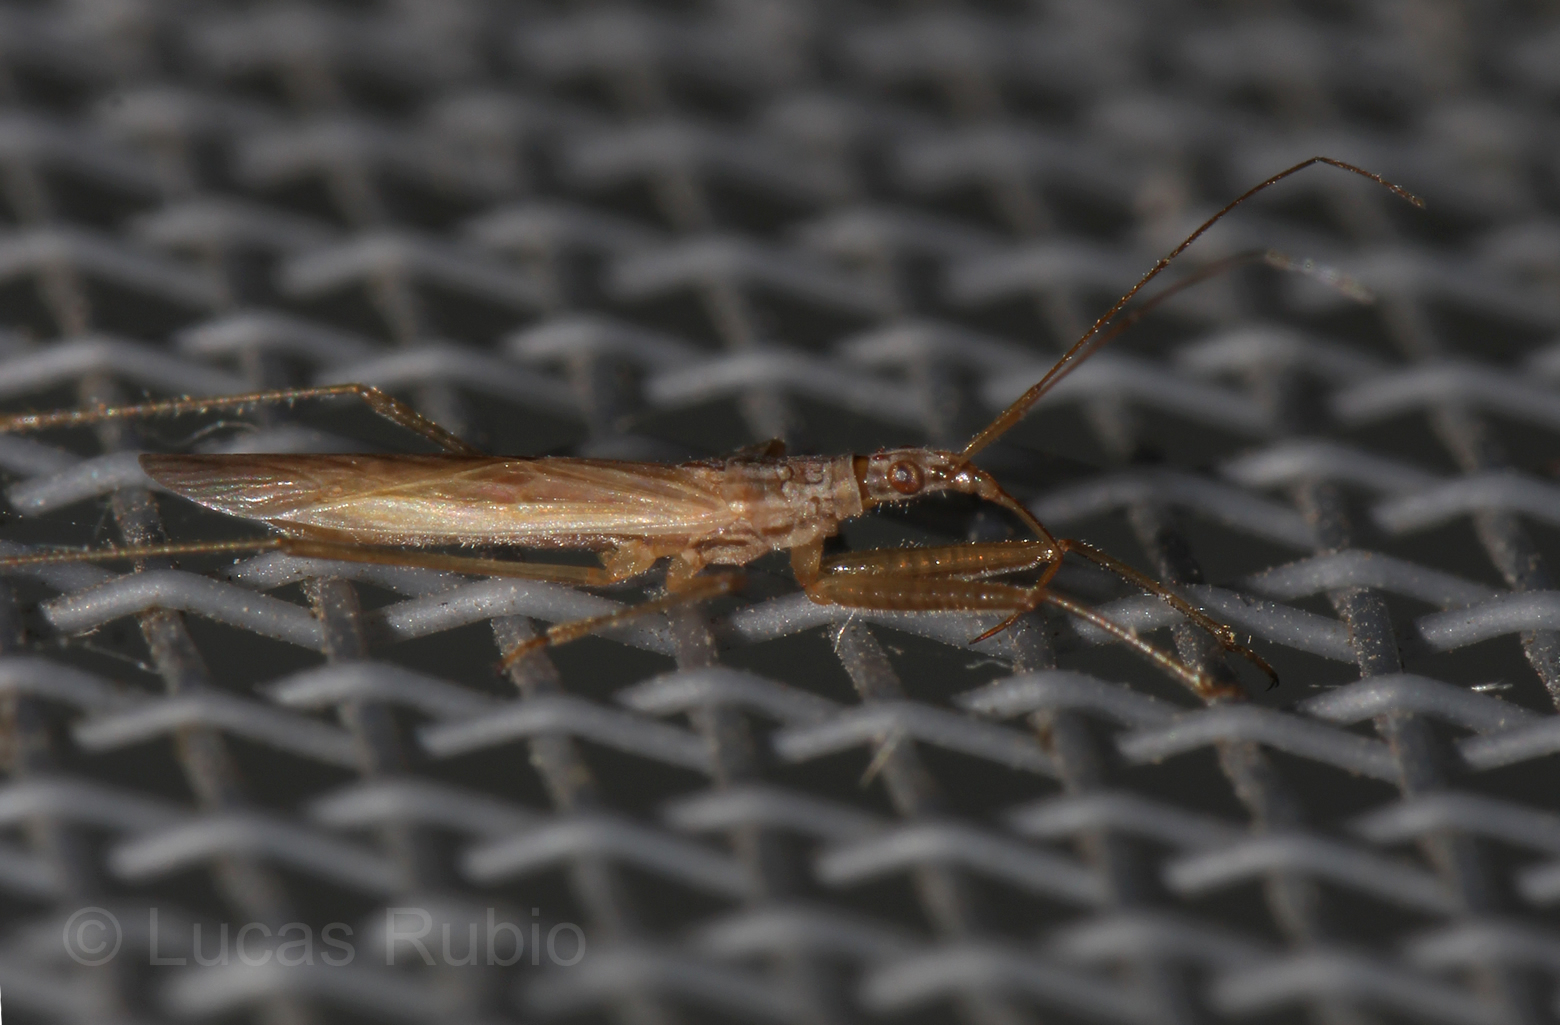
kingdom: Animalia
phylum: Arthropoda
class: Insecta
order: Hemiptera
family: Nabidae
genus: Nabis
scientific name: Nabis capsiformis
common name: Pale damsel bug
